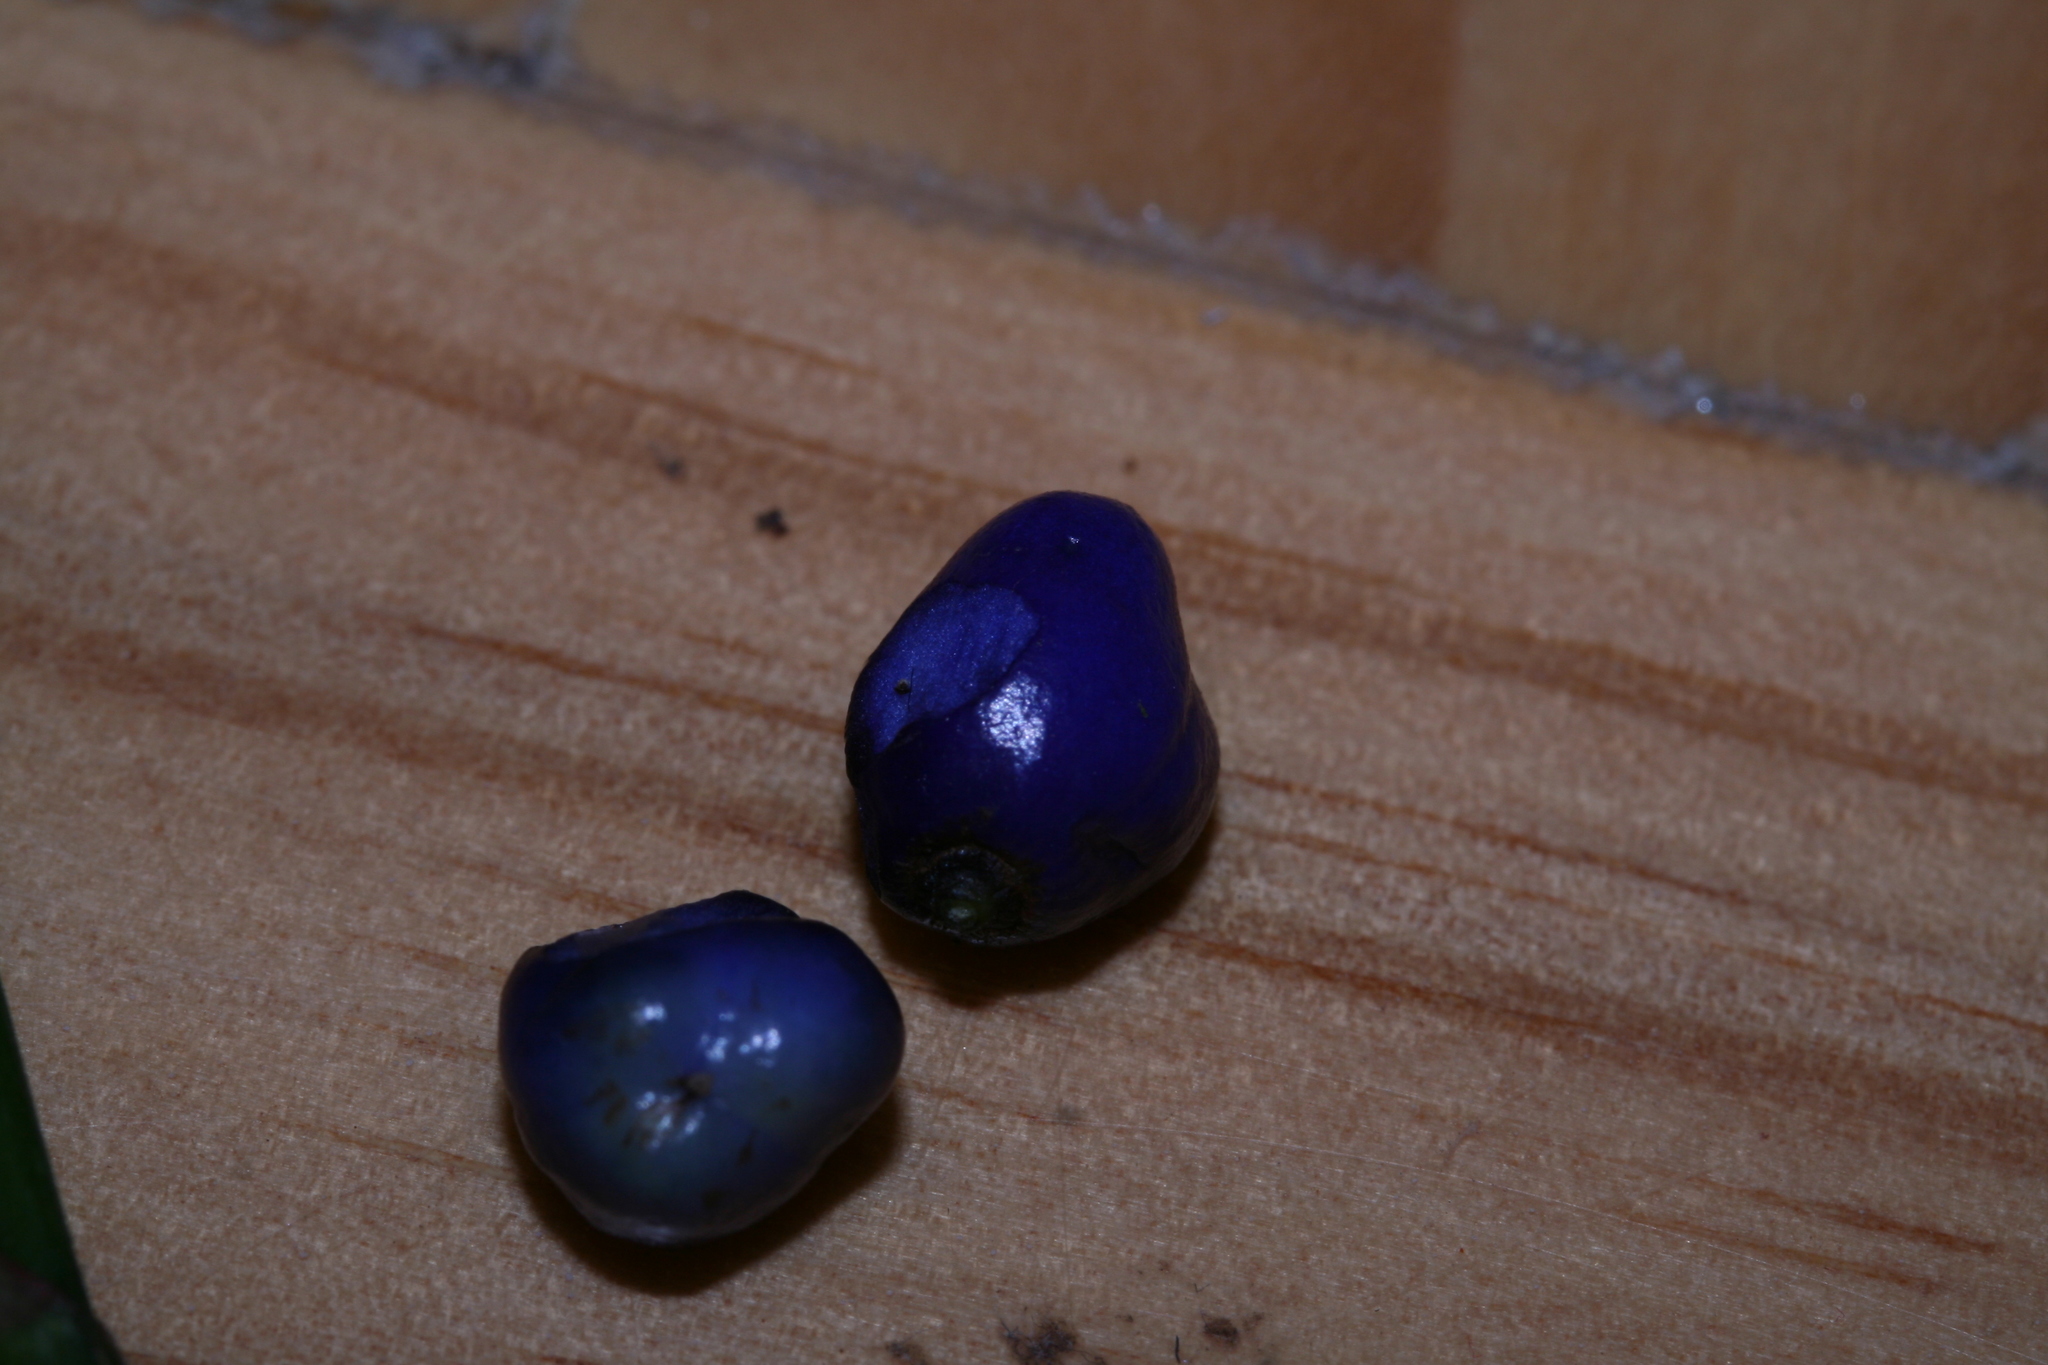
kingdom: Plantae
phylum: Tracheophyta
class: Liliopsida
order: Asparagales
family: Asphodelaceae
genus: Dianella
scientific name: Dianella ensifolia
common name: New zealand lilyplant
